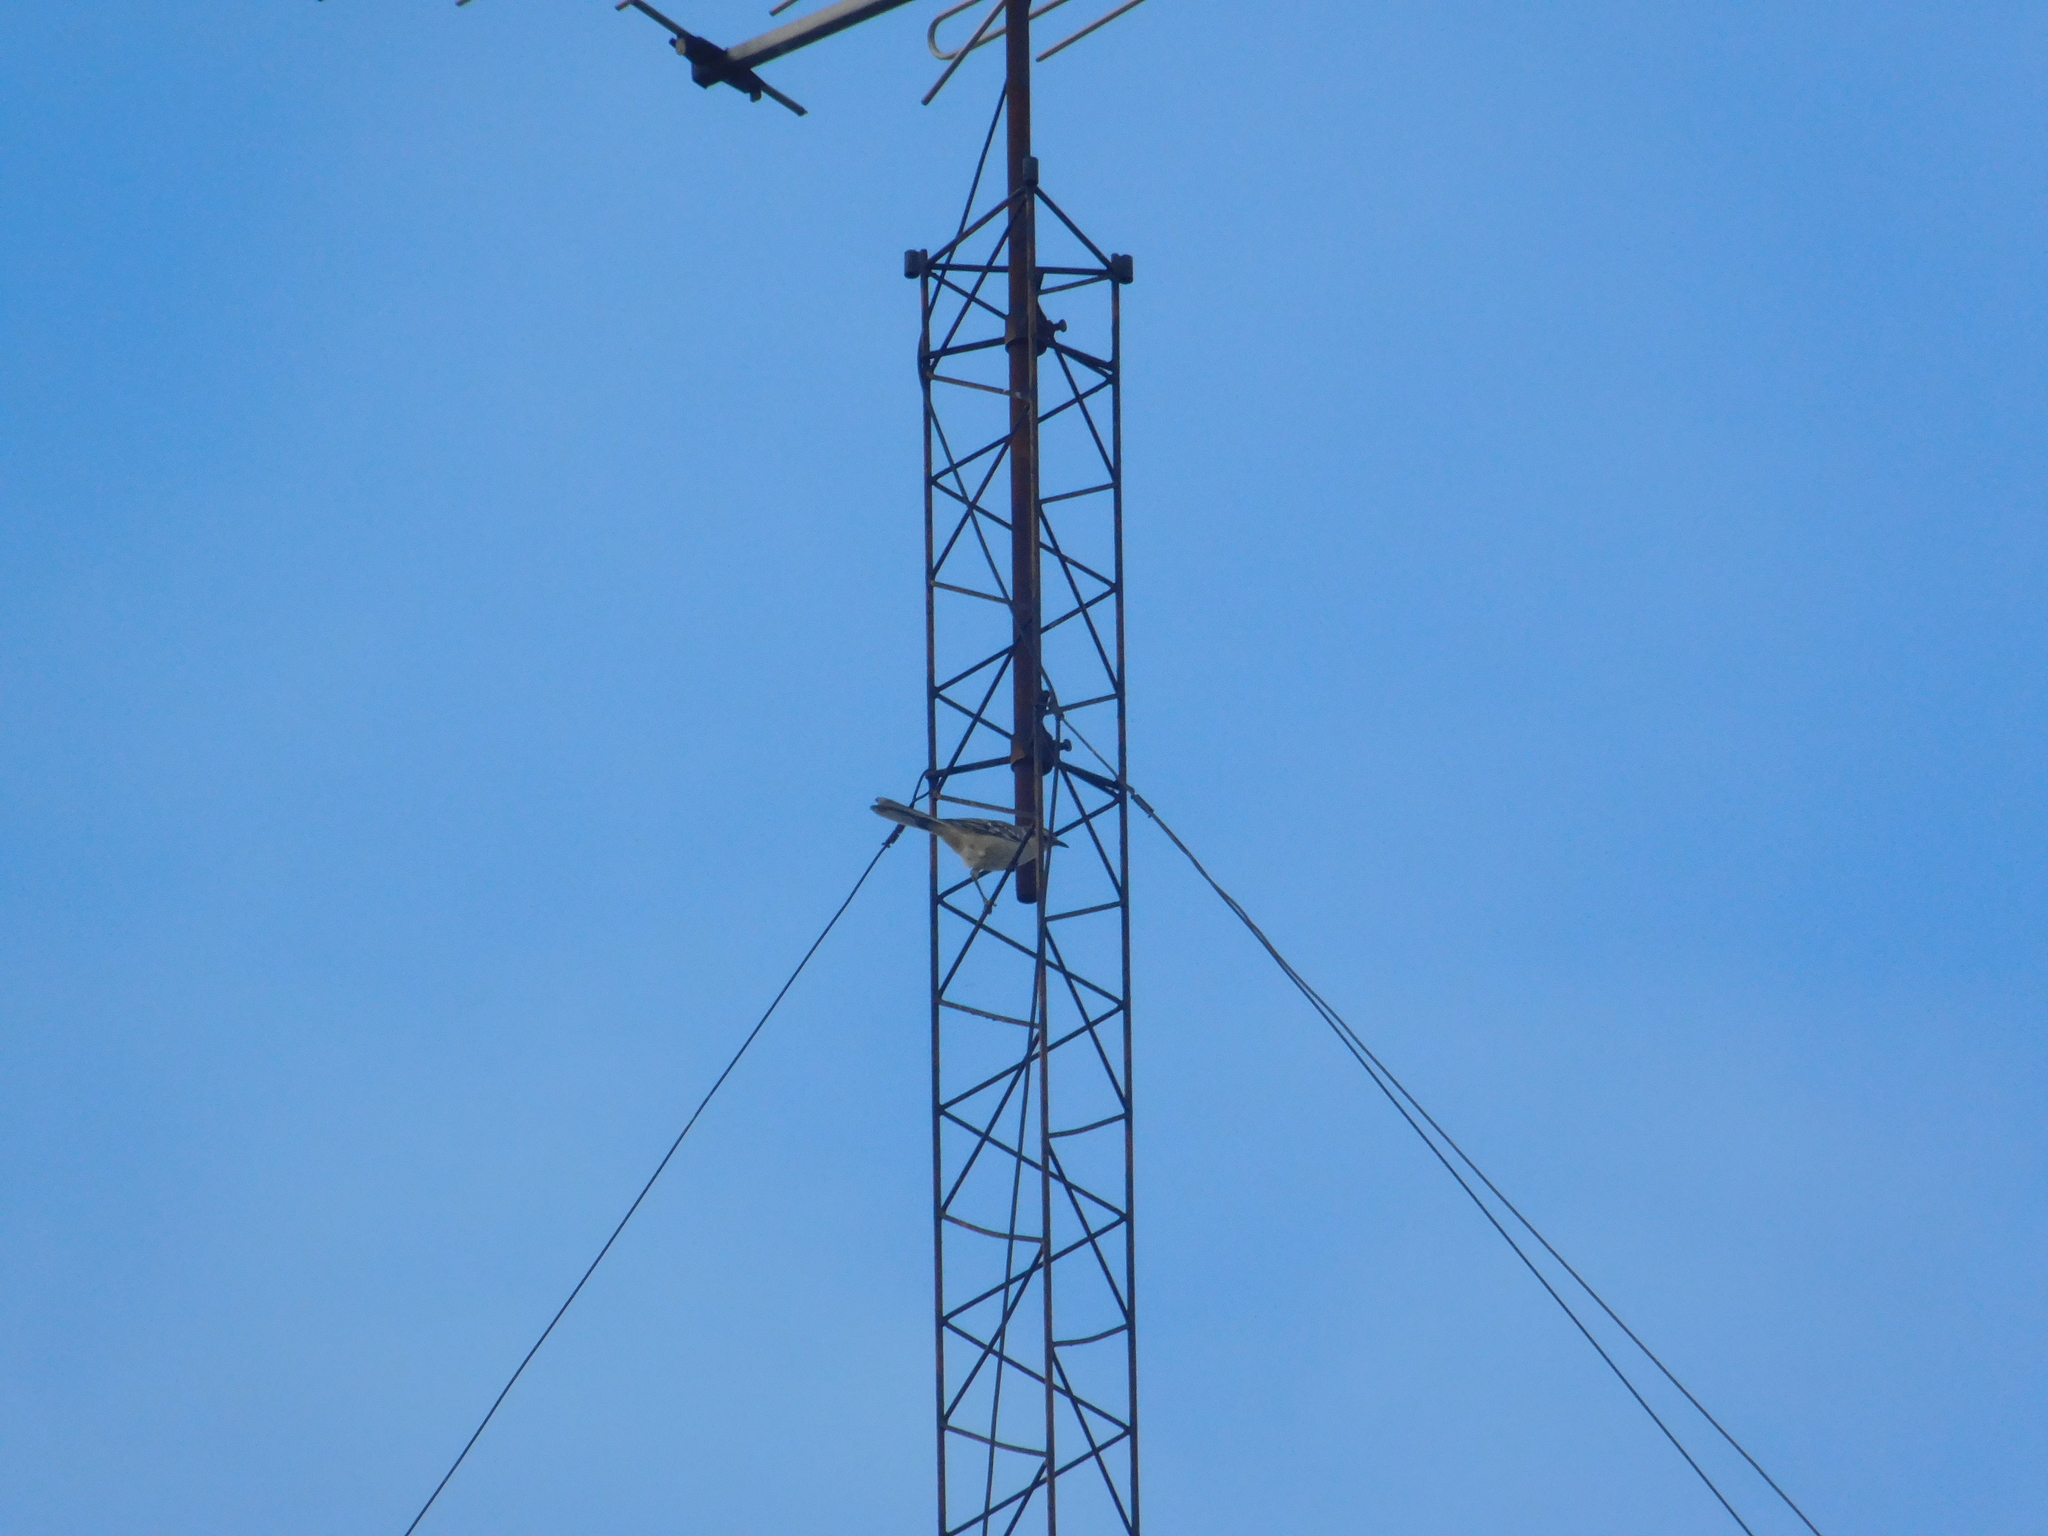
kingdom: Animalia
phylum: Chordata
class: Aves
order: Passeriformes
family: Mimidae
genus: Mimus
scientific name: Mimus saturninus
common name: Chalk-browed mockingbird
